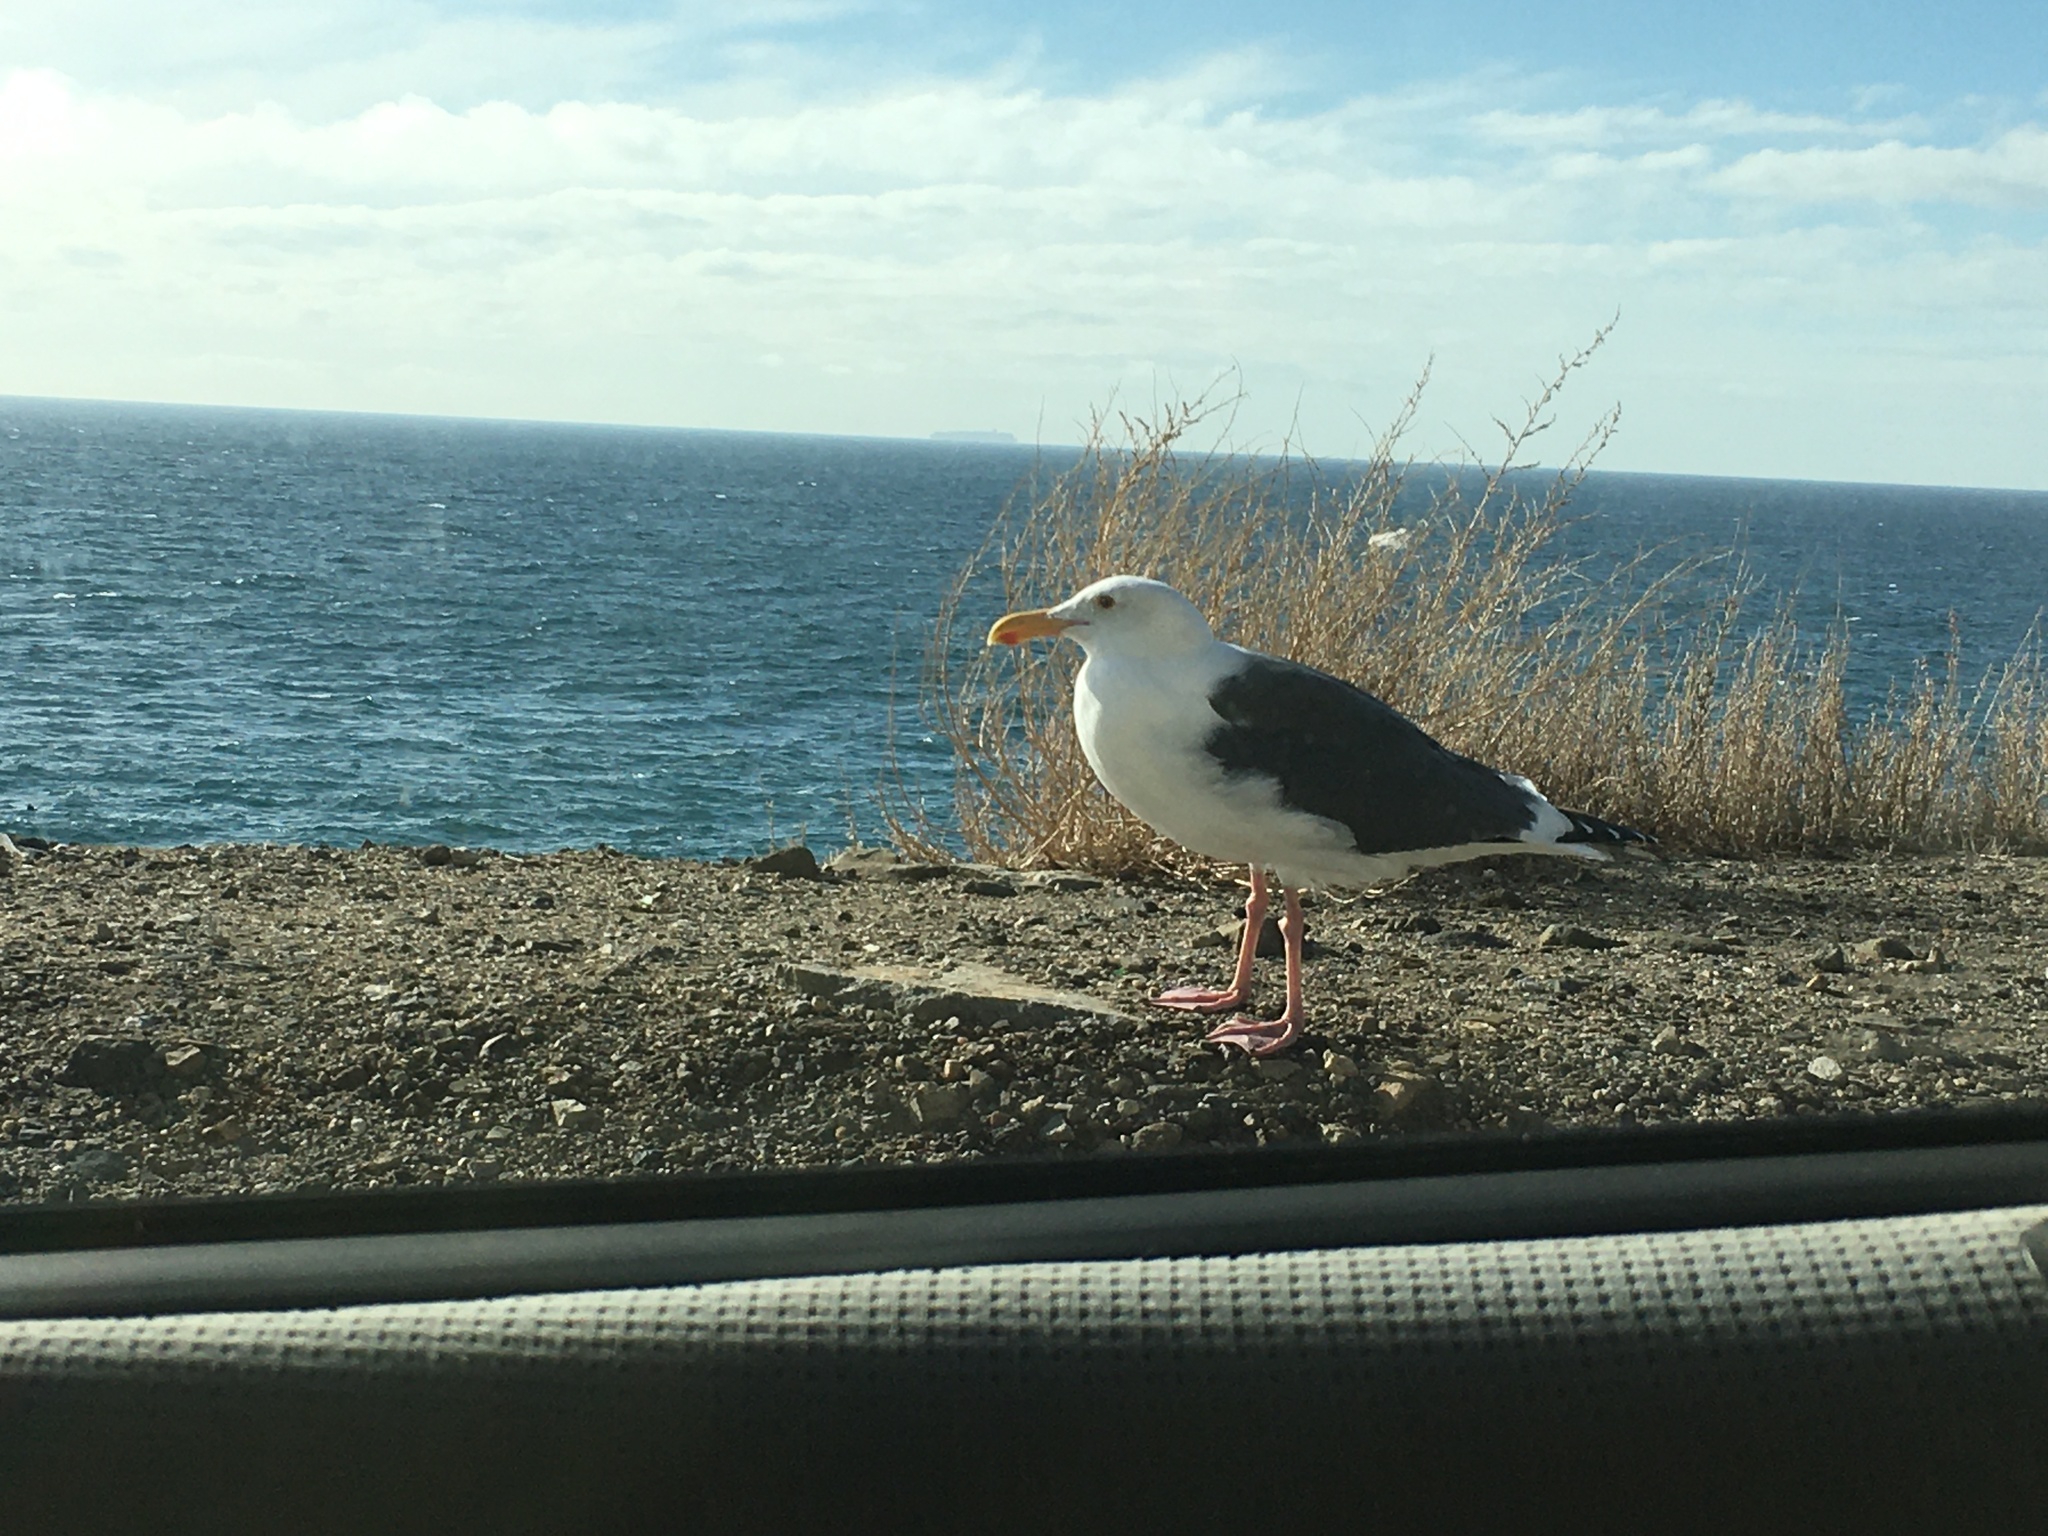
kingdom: Animalia
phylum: Chordata
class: Aves
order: Charadriiformes
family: Laridae
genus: Larus
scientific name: Larus occidentalis
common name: Western gull
